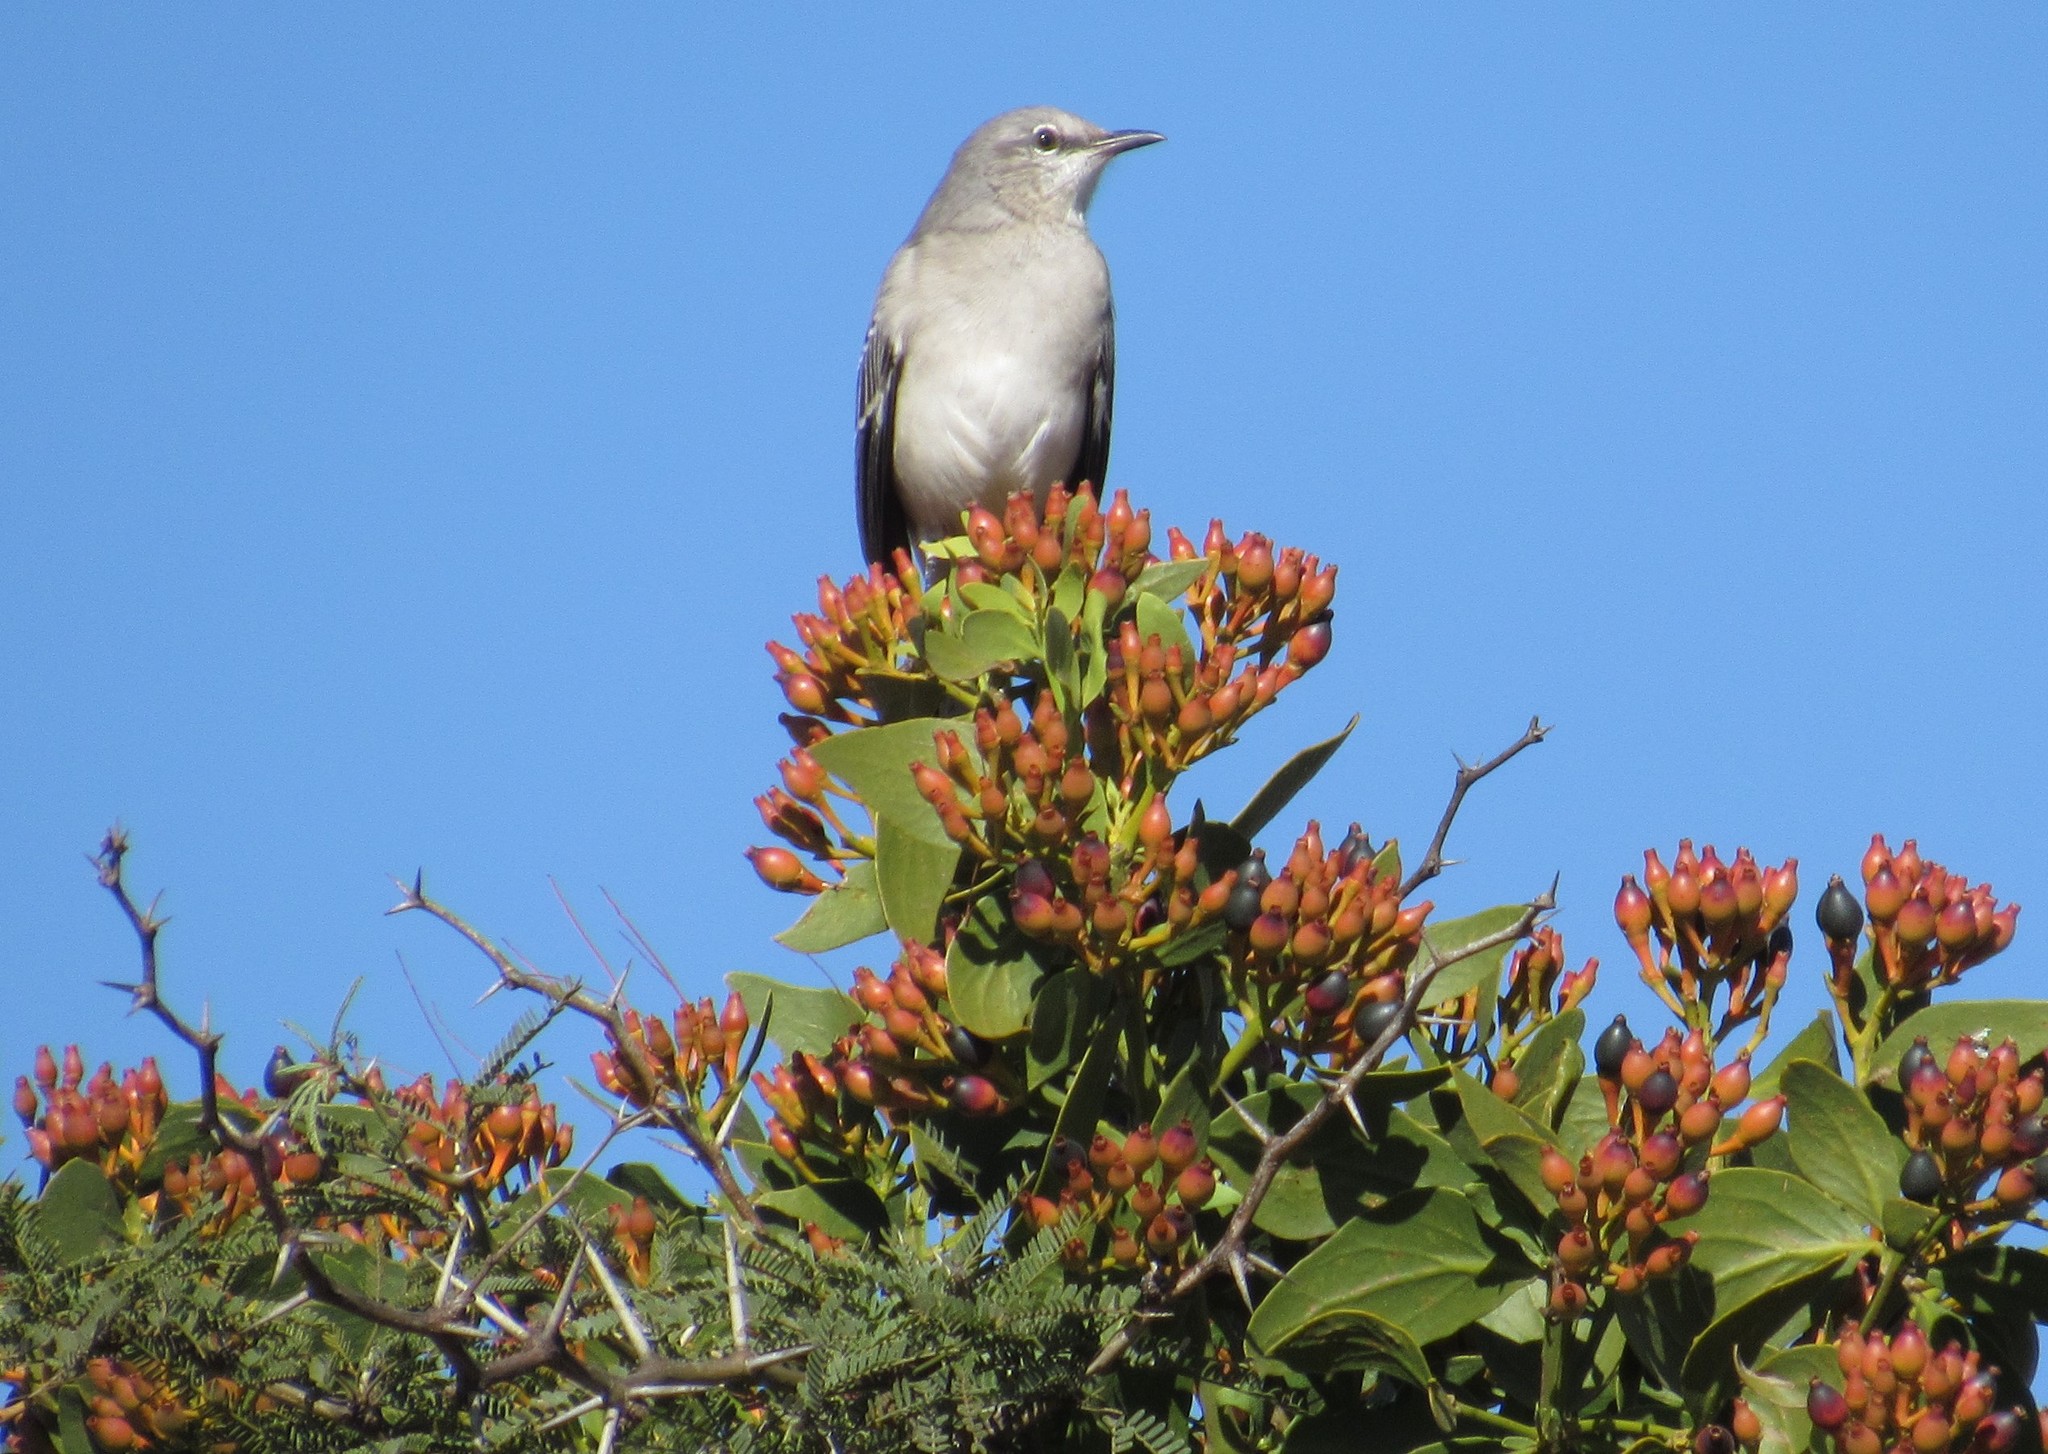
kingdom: Animalia
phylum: Chordata
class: Aves
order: Passeriformes
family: Mimidae
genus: Mimus
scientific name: Mimus polyglottos
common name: Northern mockingbird
